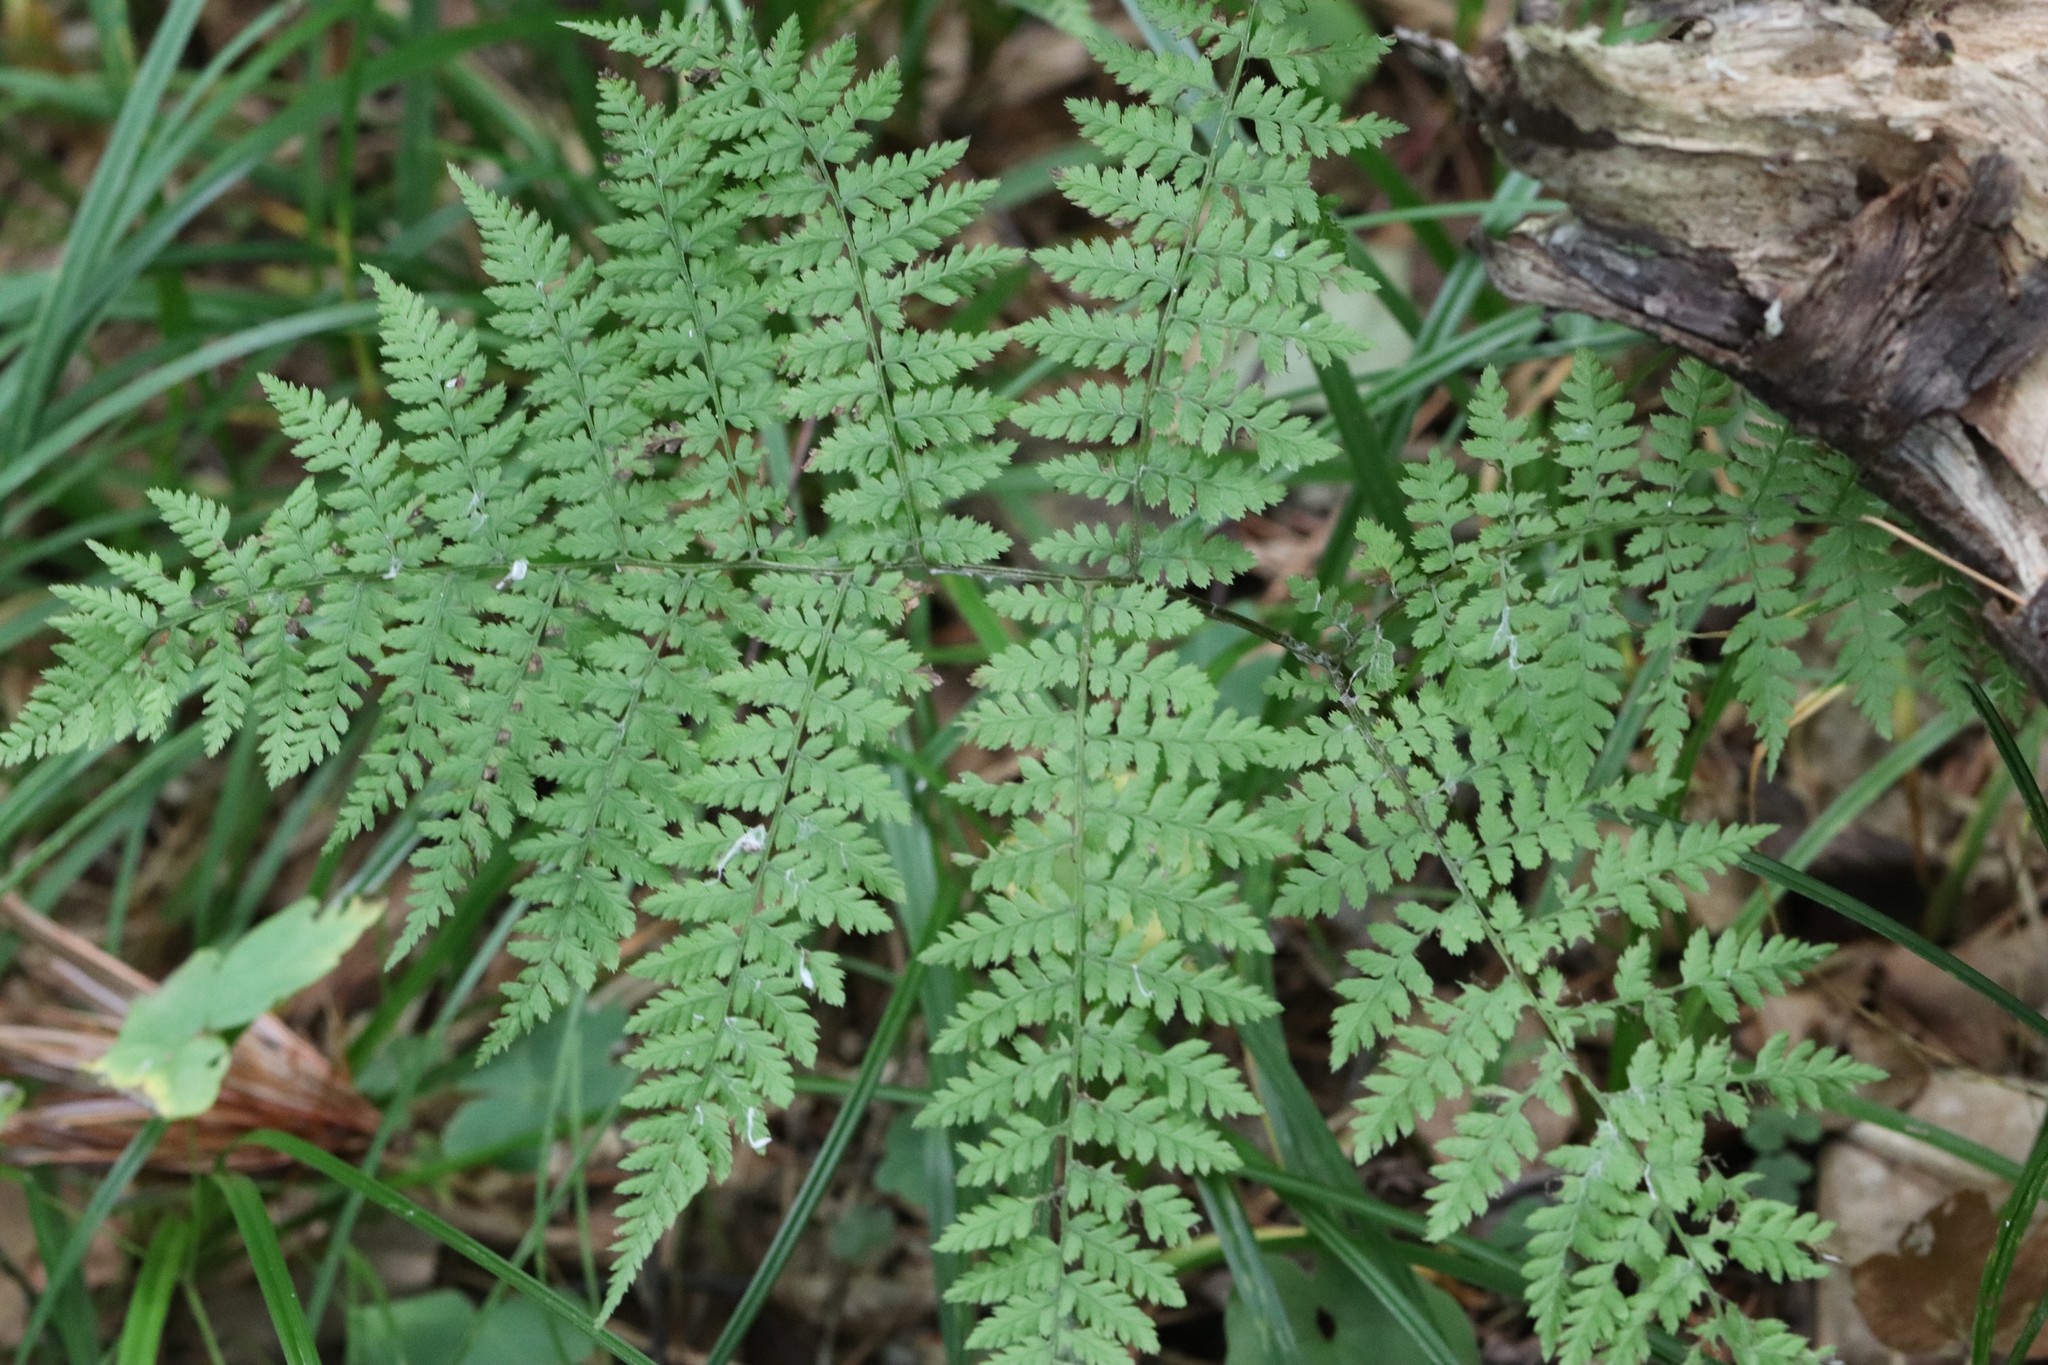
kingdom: Plantae
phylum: Tracheophyta
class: Polypodiopsida
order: Polypodiales
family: Athyriaceae
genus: Athyrium
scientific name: Athyrium spinulosum
